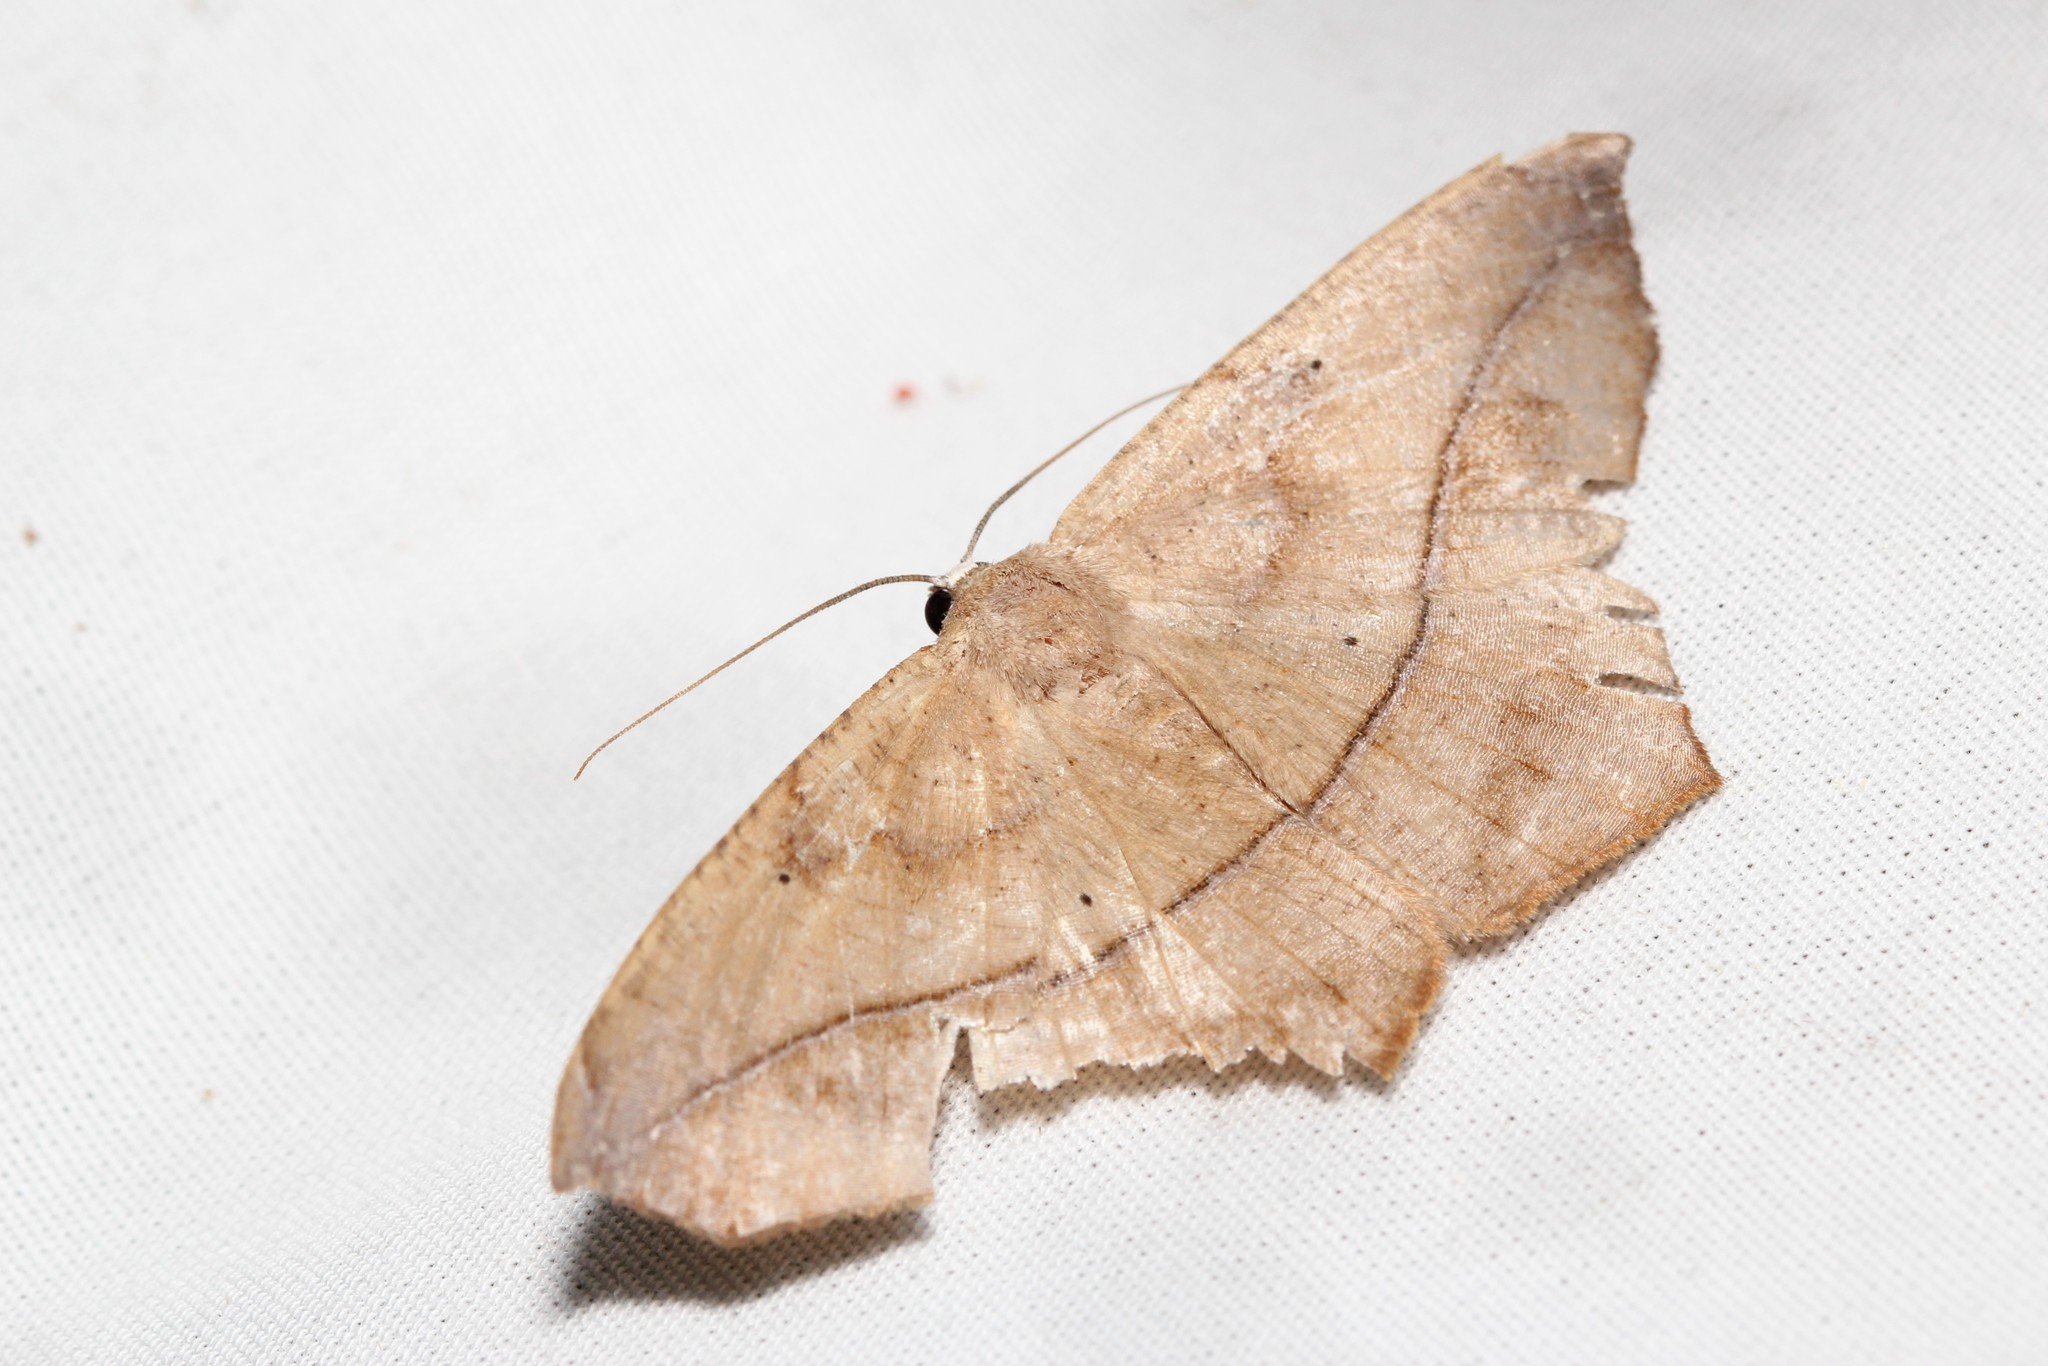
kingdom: Animalia
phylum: Arthropoda
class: Insecta
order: Lepidoptera
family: Geometridae
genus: Prochoerodes
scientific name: Prochoerodes lineola
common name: Large maple spanworm
